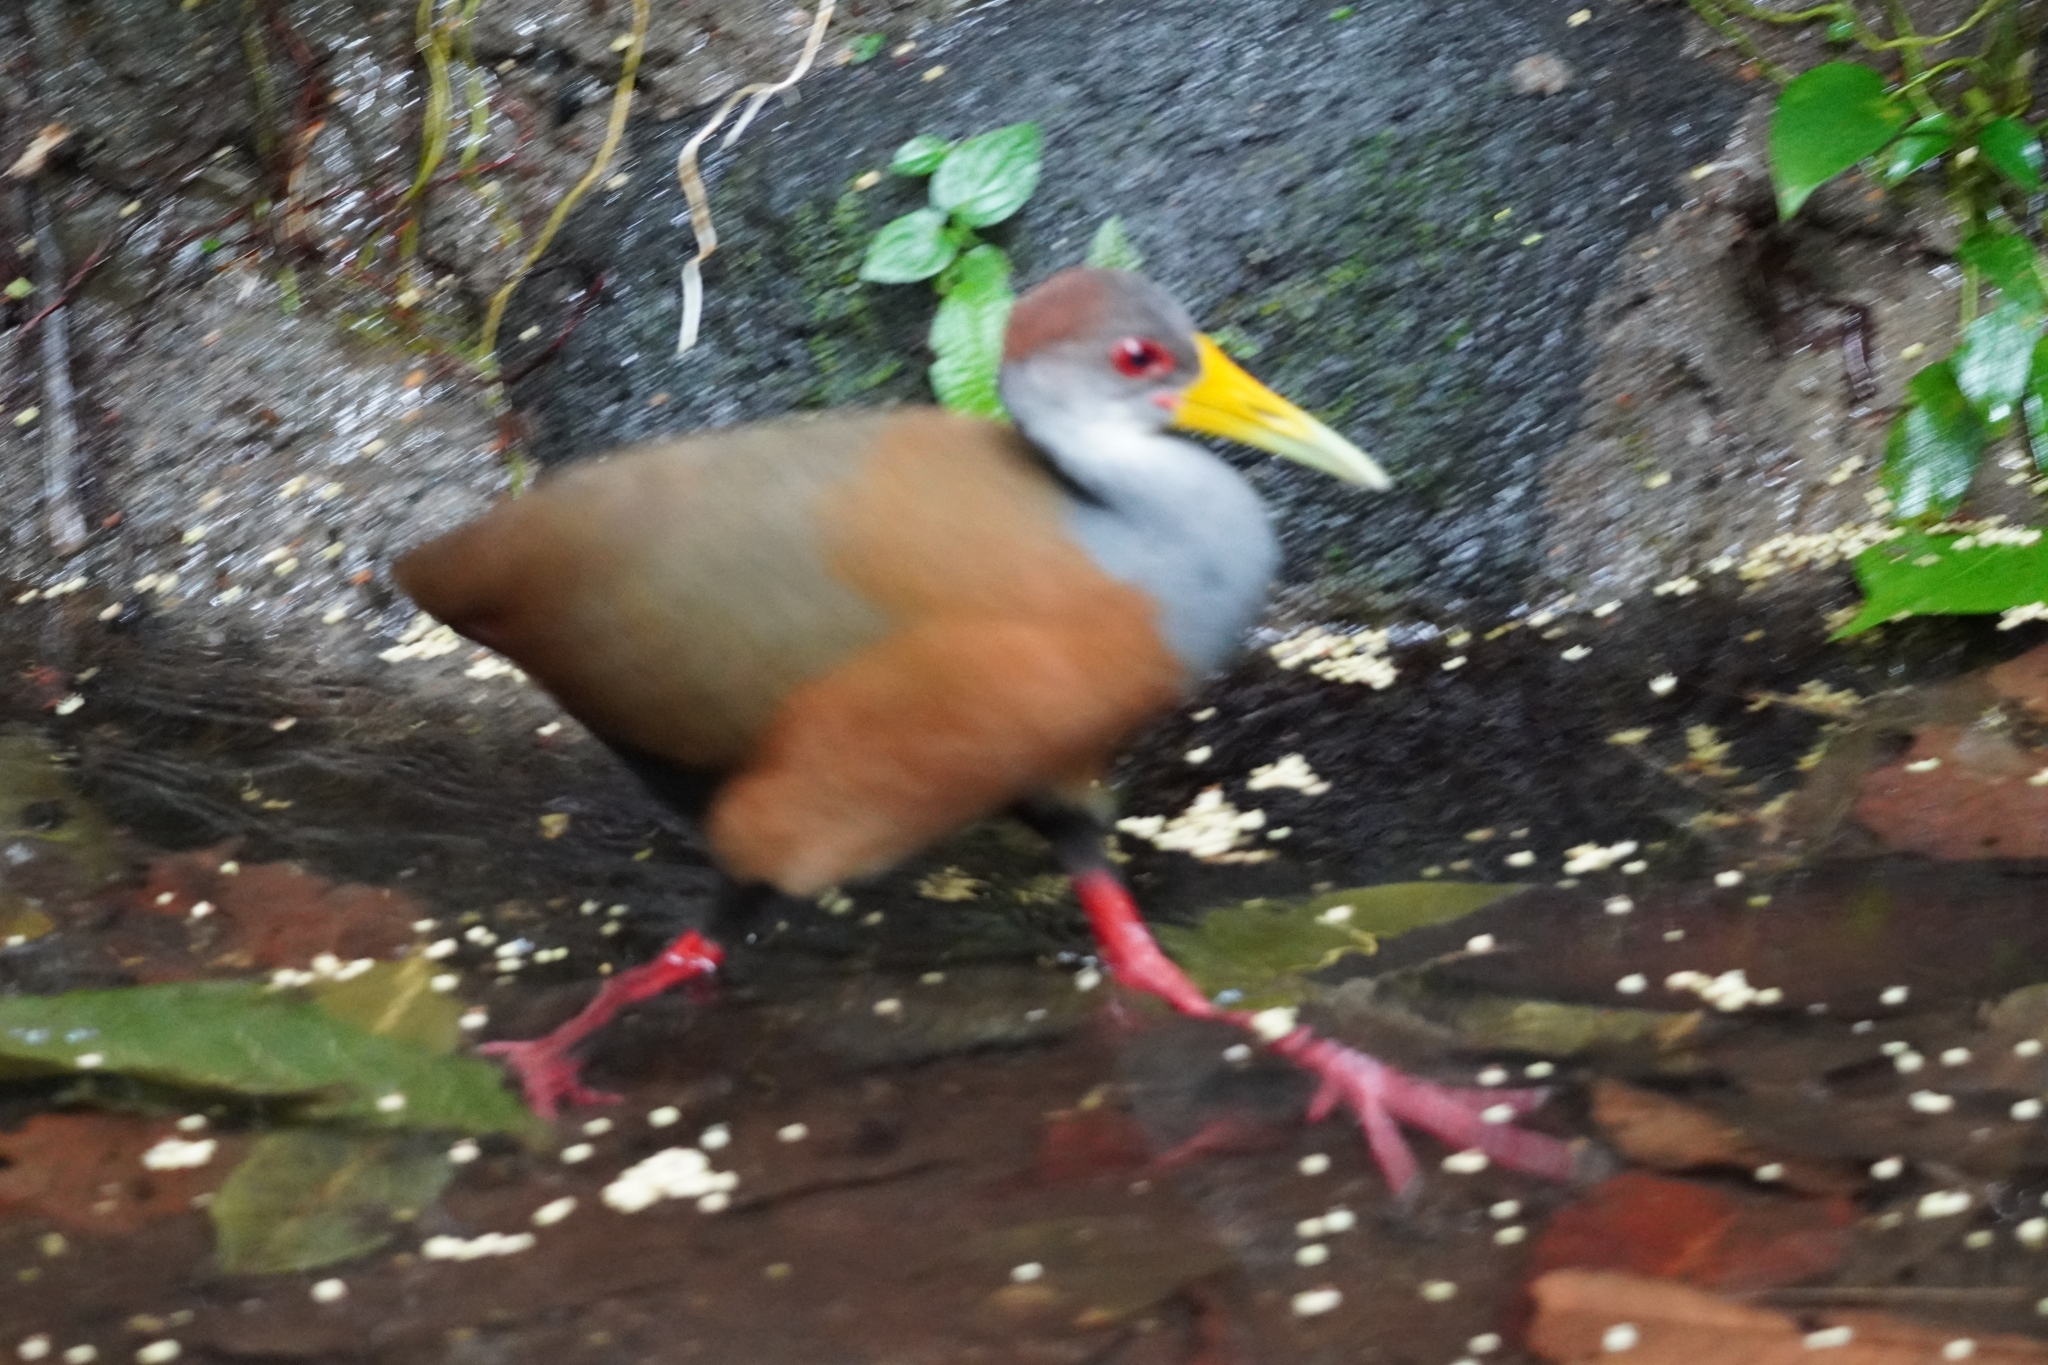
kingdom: Animalia
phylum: Chordata
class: Aves
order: Gruiformes
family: Rallidae
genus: Aramides
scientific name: Aramides albiventris
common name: Russet-naped wood-rail
